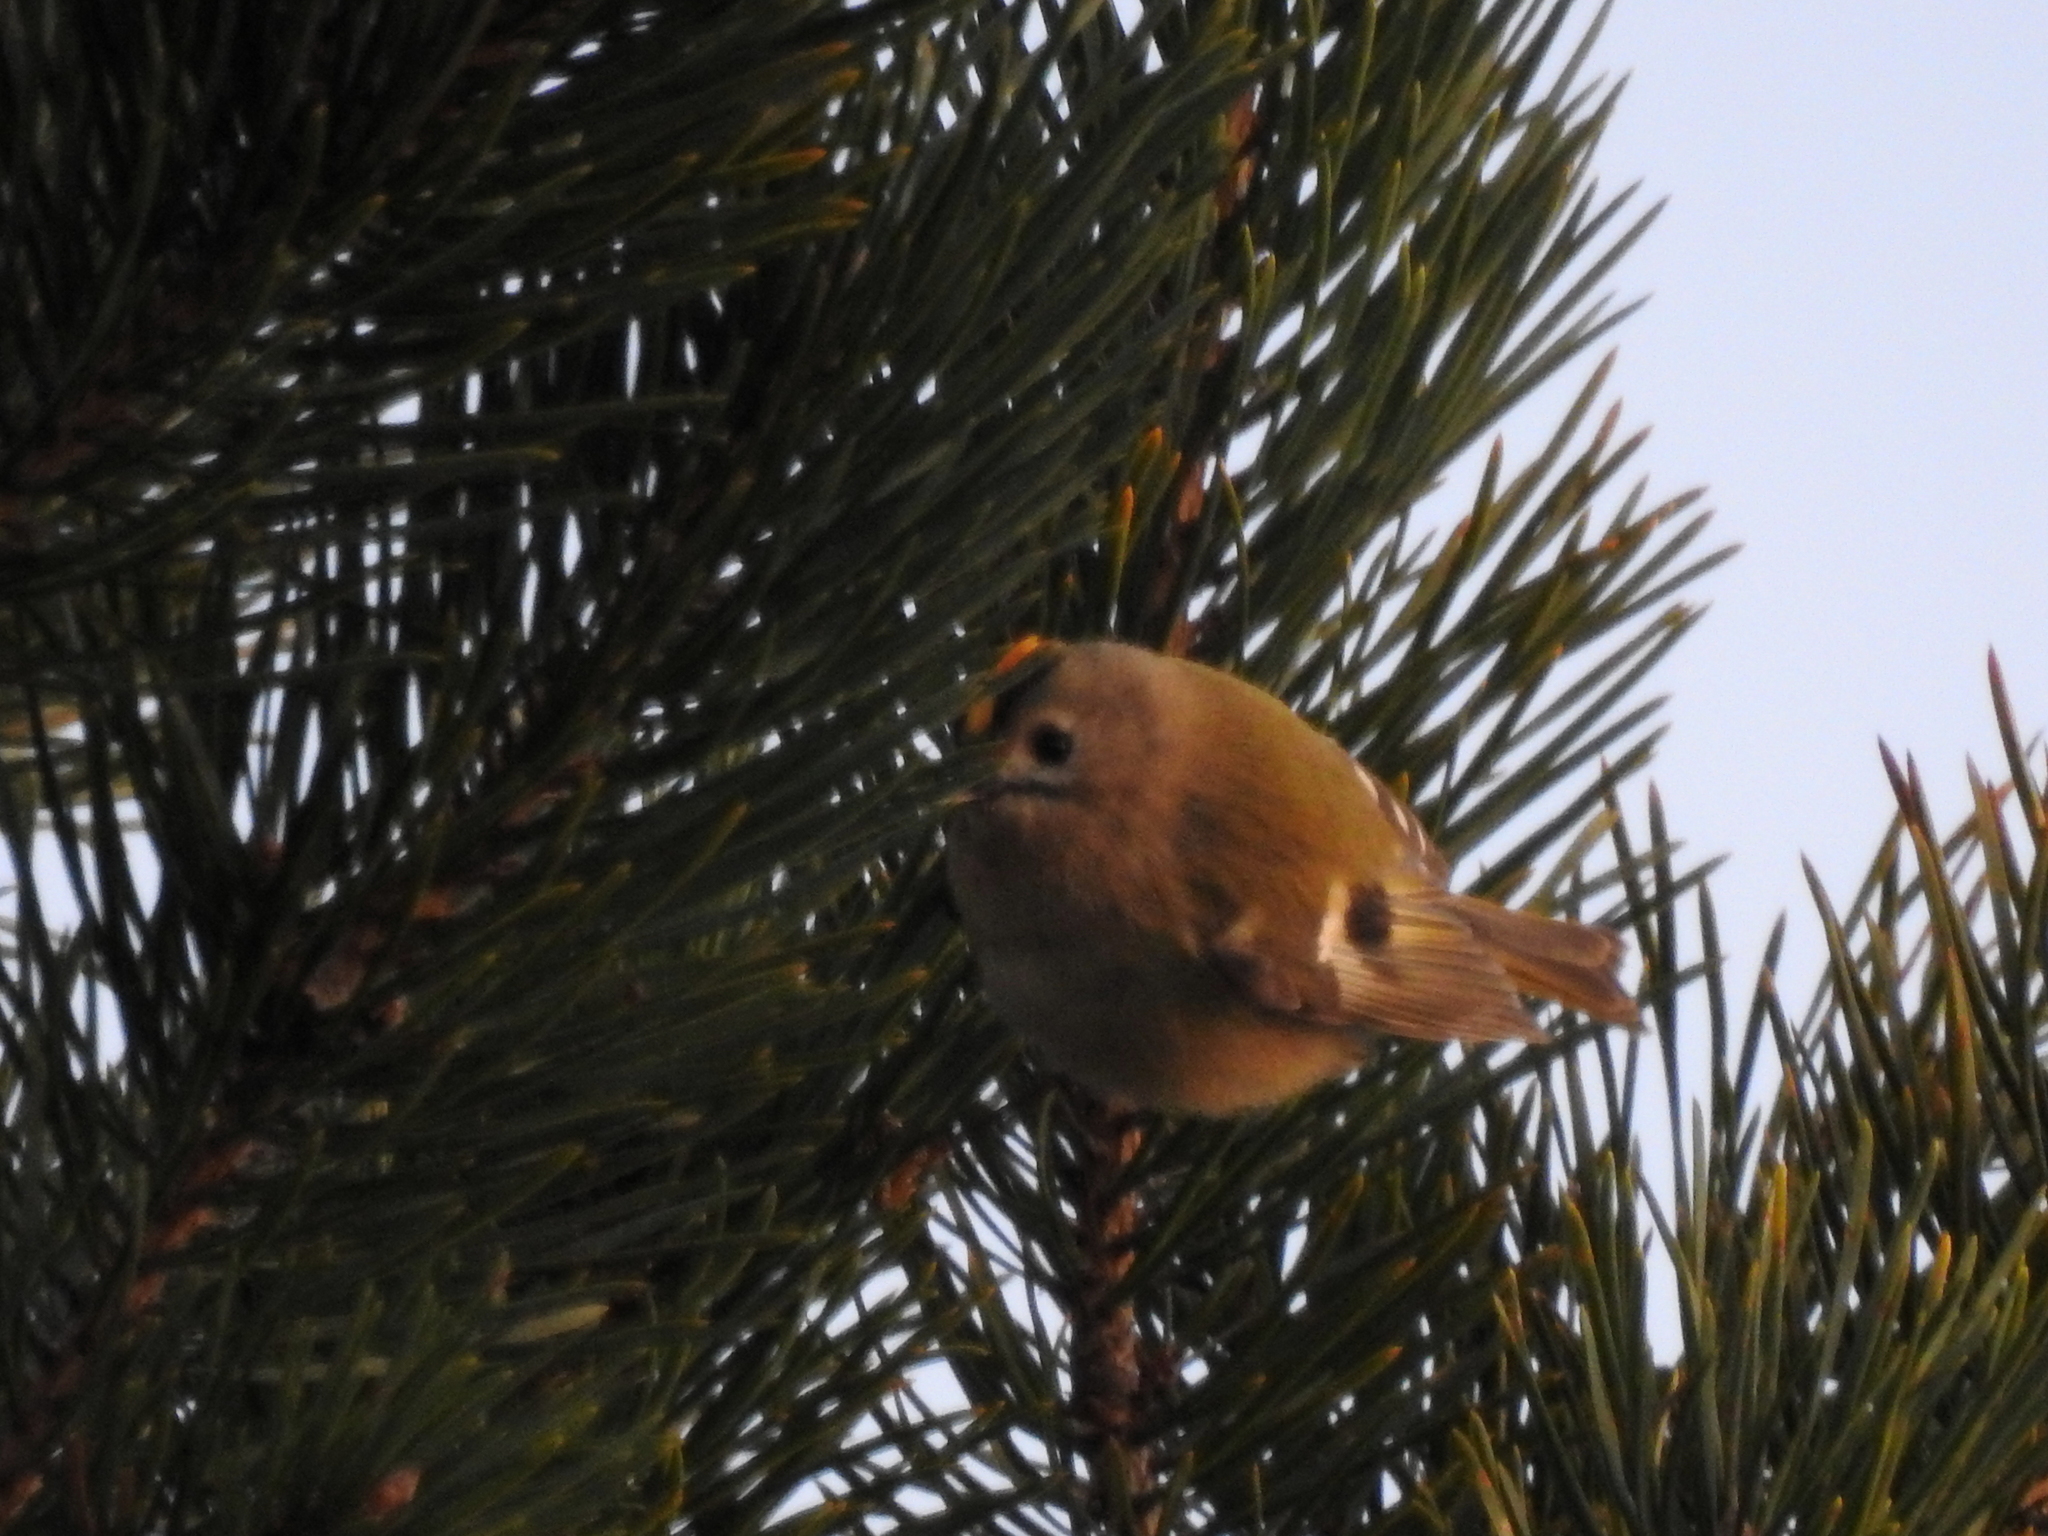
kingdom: Animalia
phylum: Chordata
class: Aves
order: Passeriformes
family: Regulidae
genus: Regulus
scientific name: Regulus regulus
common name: Goldcrest
